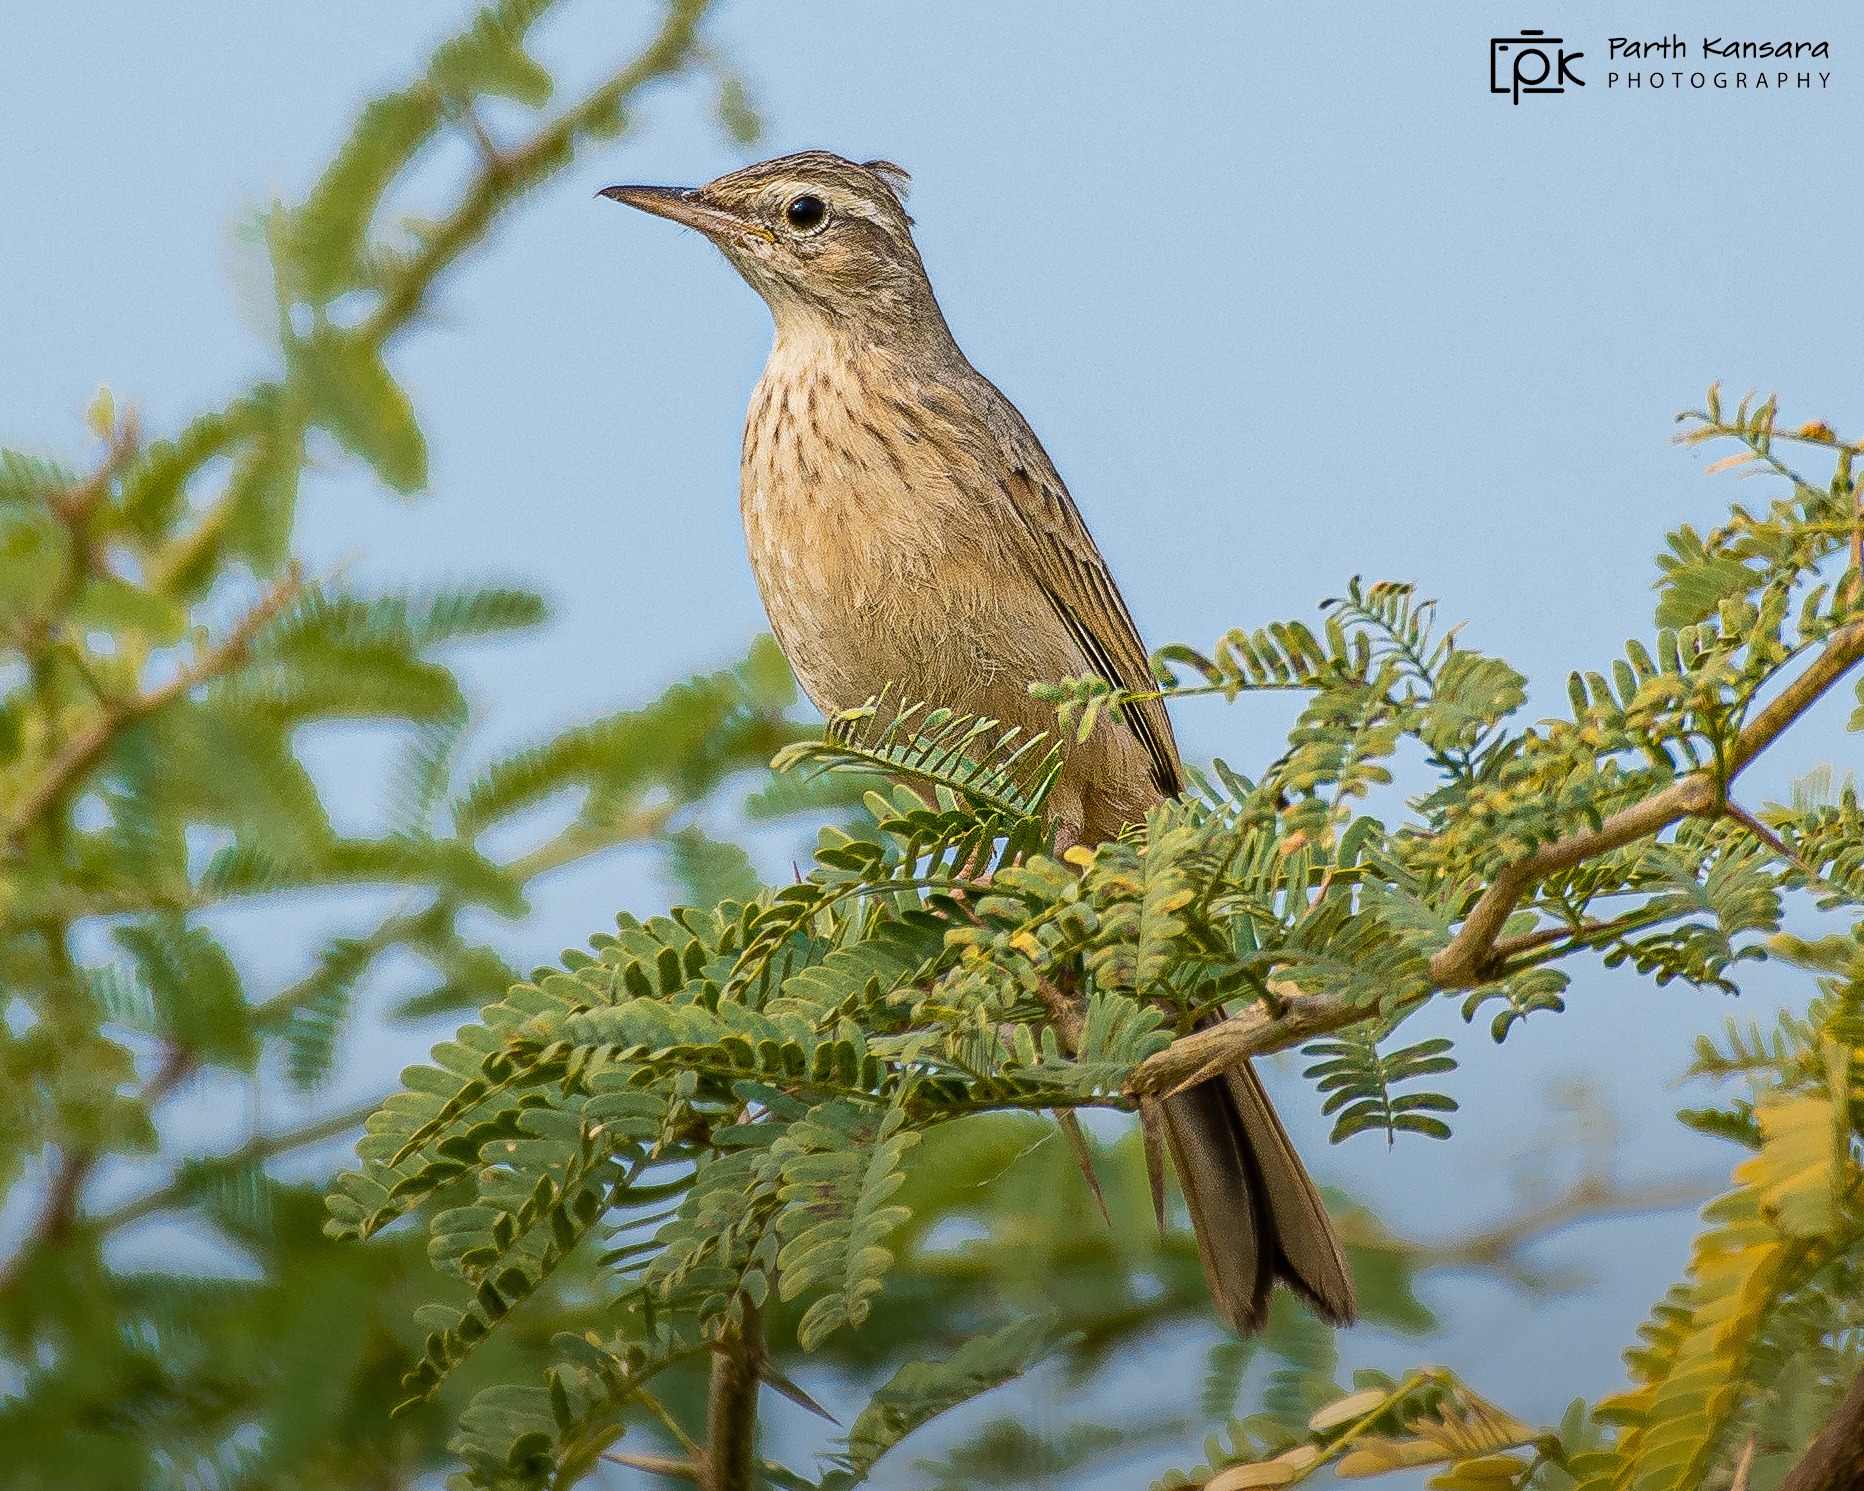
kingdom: Animalia
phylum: Chordata
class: Aves
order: Passeriformes
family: Motacillidae
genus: Anthus
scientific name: Anthus similis
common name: Long-billed pipit
